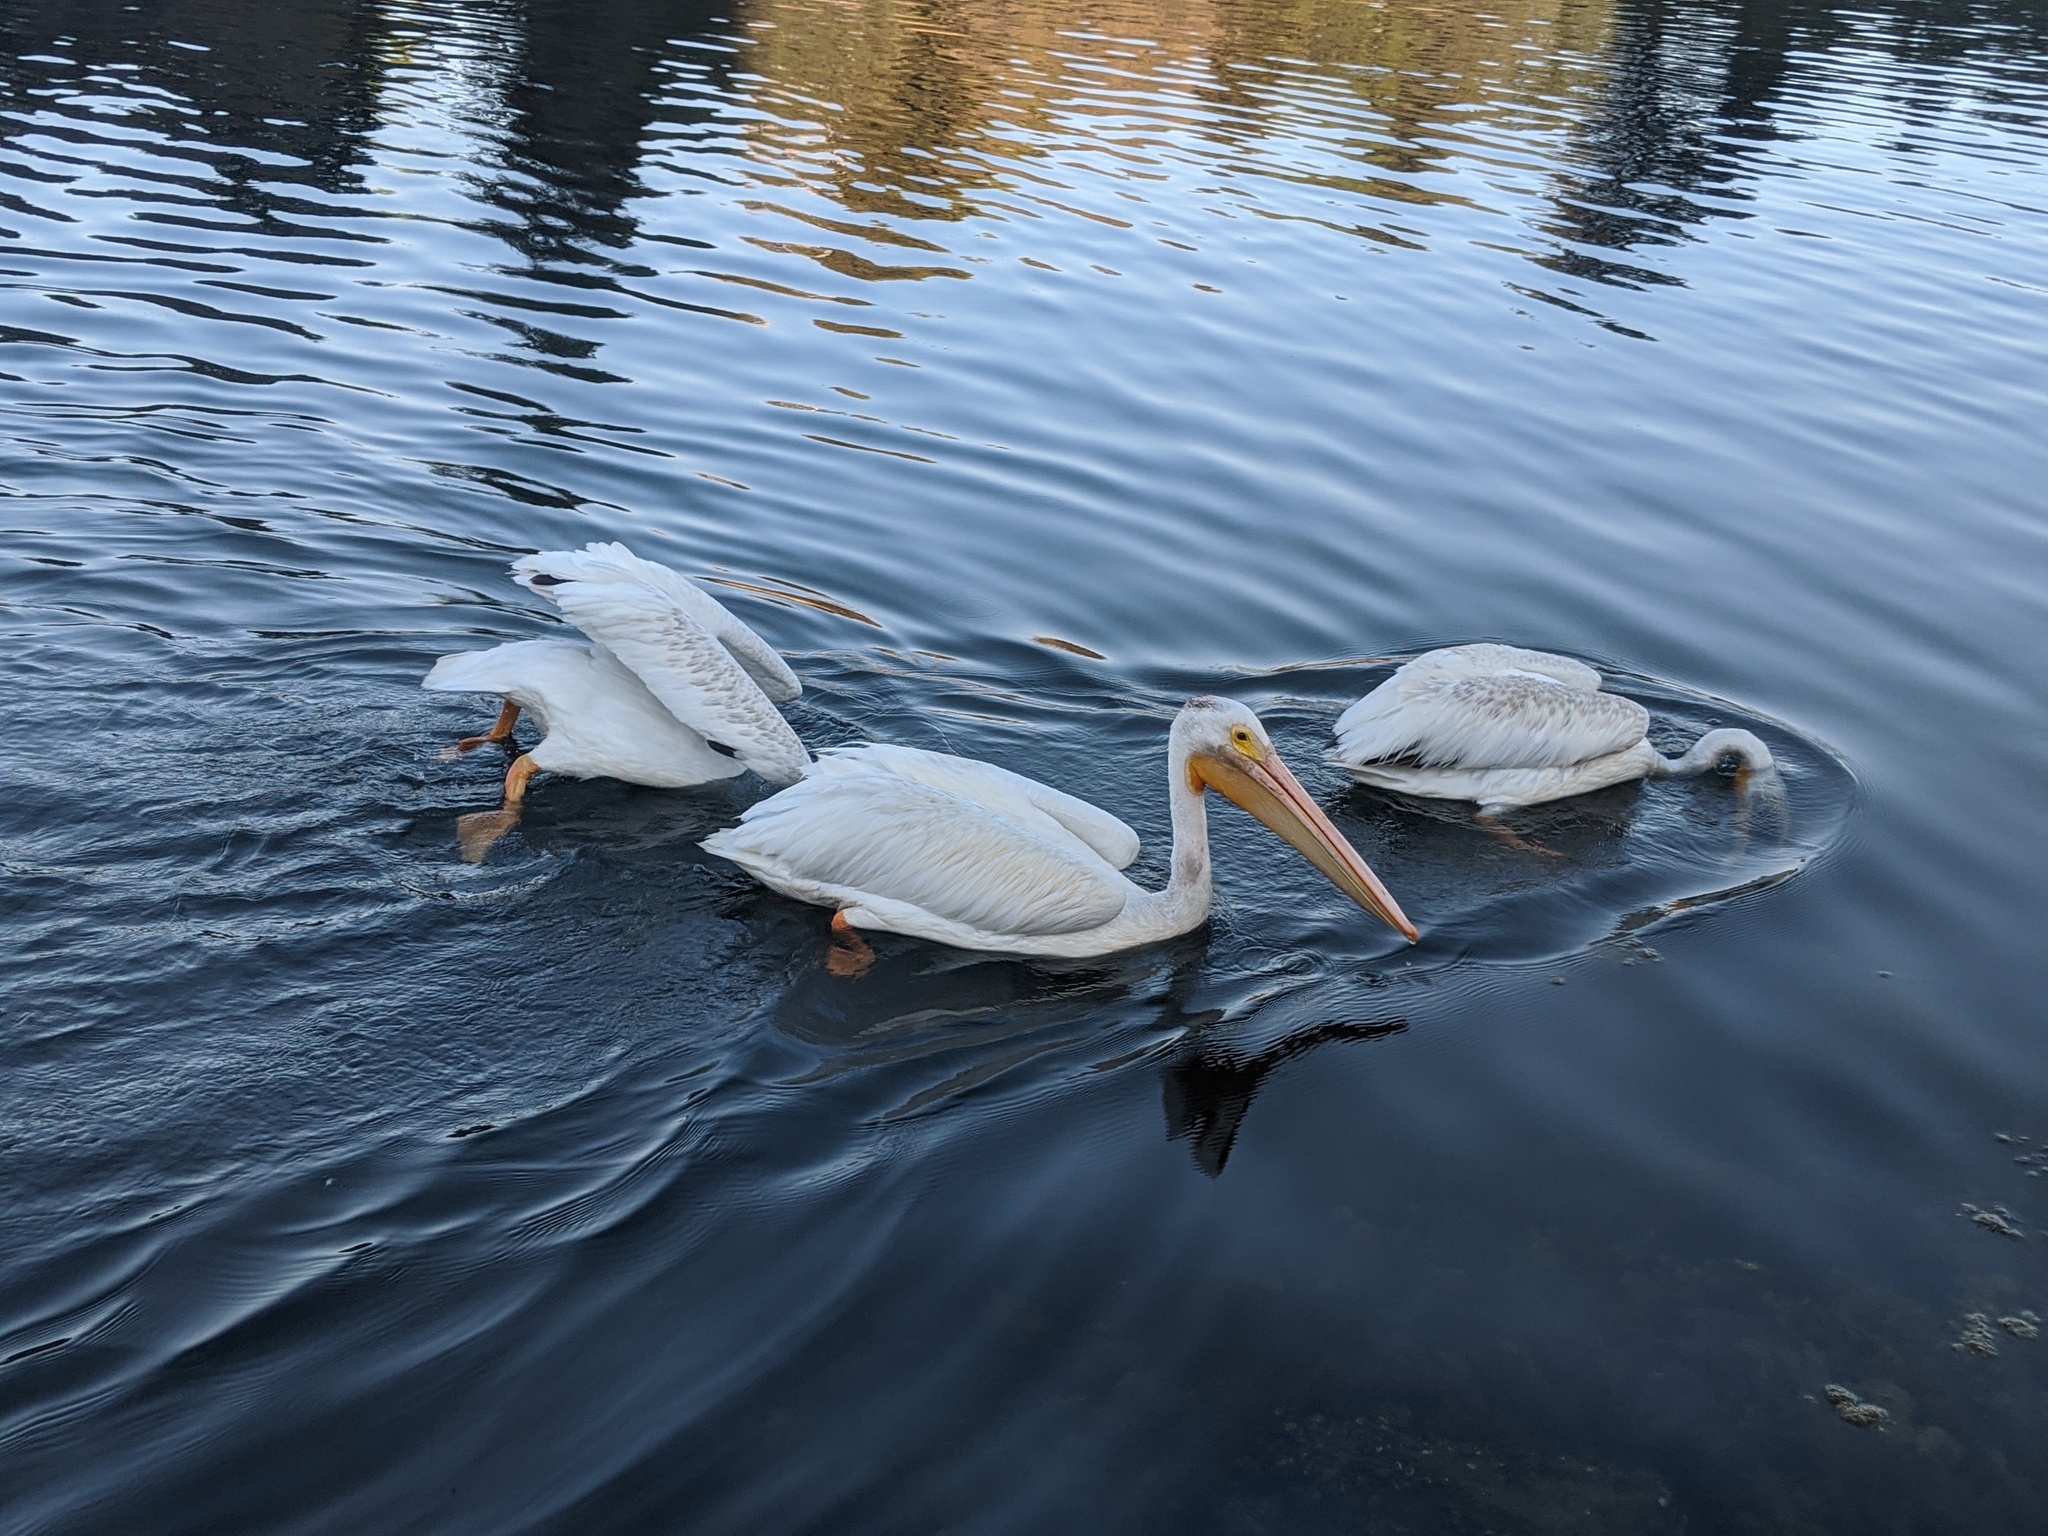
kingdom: Animalia
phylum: Chordata
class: Aves
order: Pelecaniformes
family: Pelecanidae
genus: Pelecanus
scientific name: Pelecanus erythrorhynchos
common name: American white pelican
